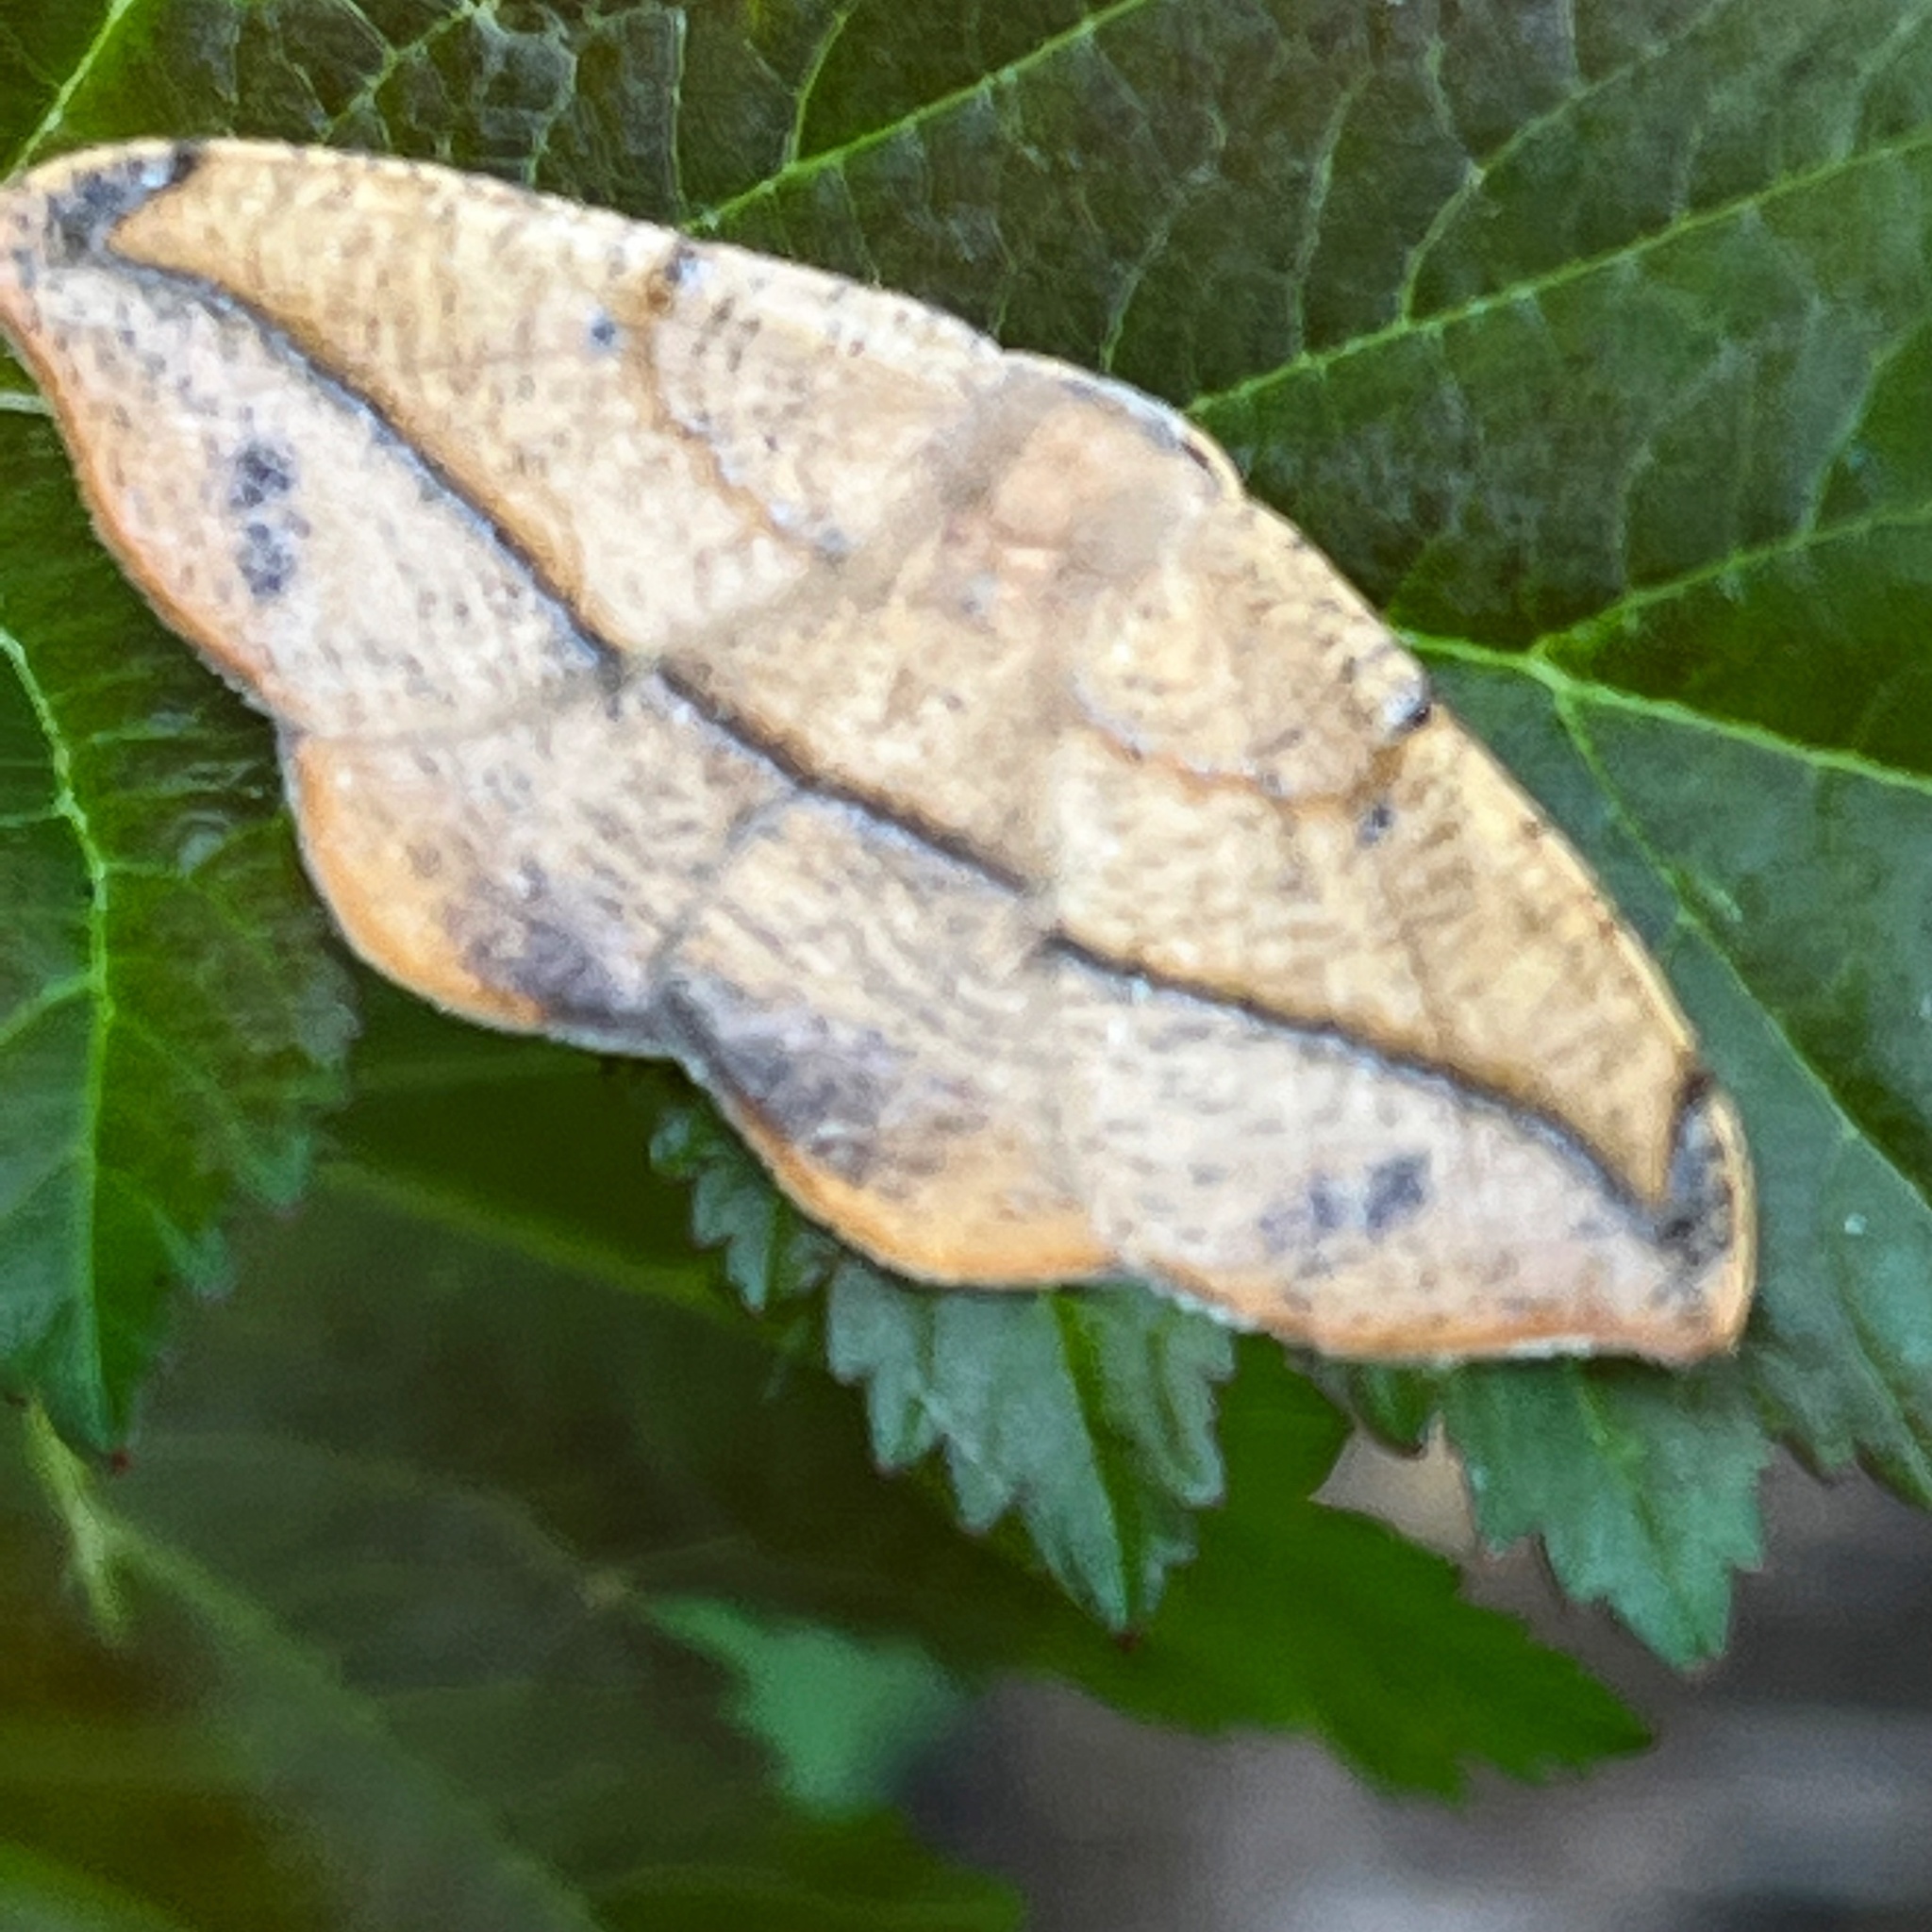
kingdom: Animalia
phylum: Arthropoda
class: Insecta
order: Lepidoptera
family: Geometridae
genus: Patalene
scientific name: Patalene olyzonaria
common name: Juniper geometer moth
